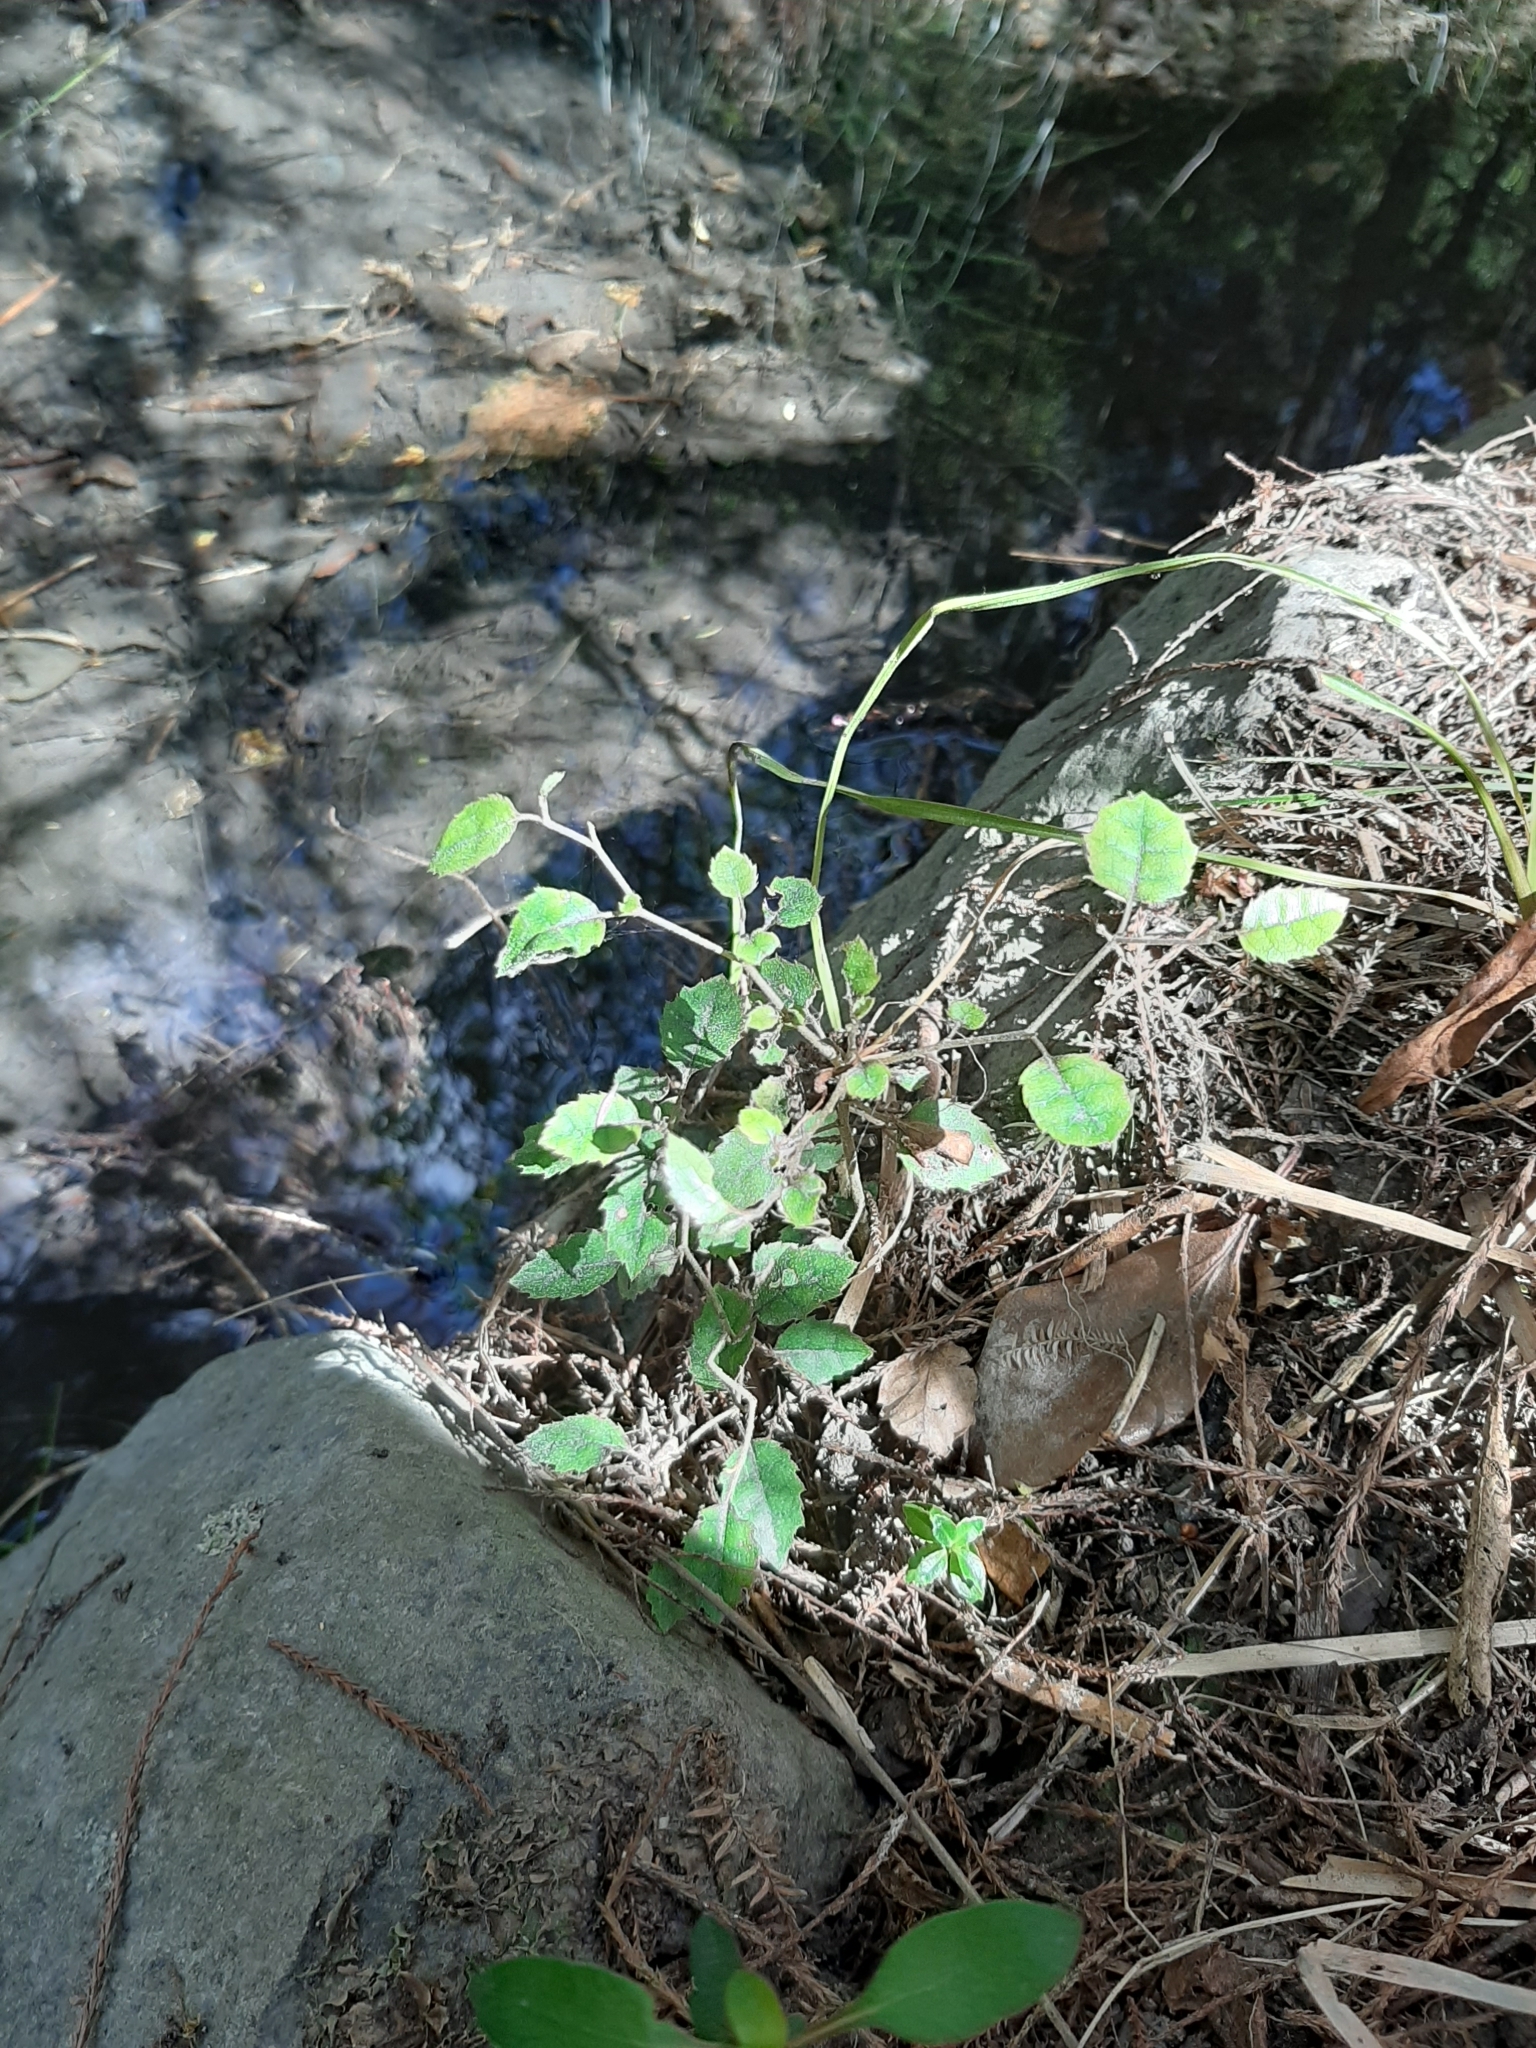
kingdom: Plantae
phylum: Tracheophyta
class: Magnoliopsida
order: Asterales
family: Rousseaceae
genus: Carpodetus
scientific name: Carpodetus serratus
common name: White mapau
